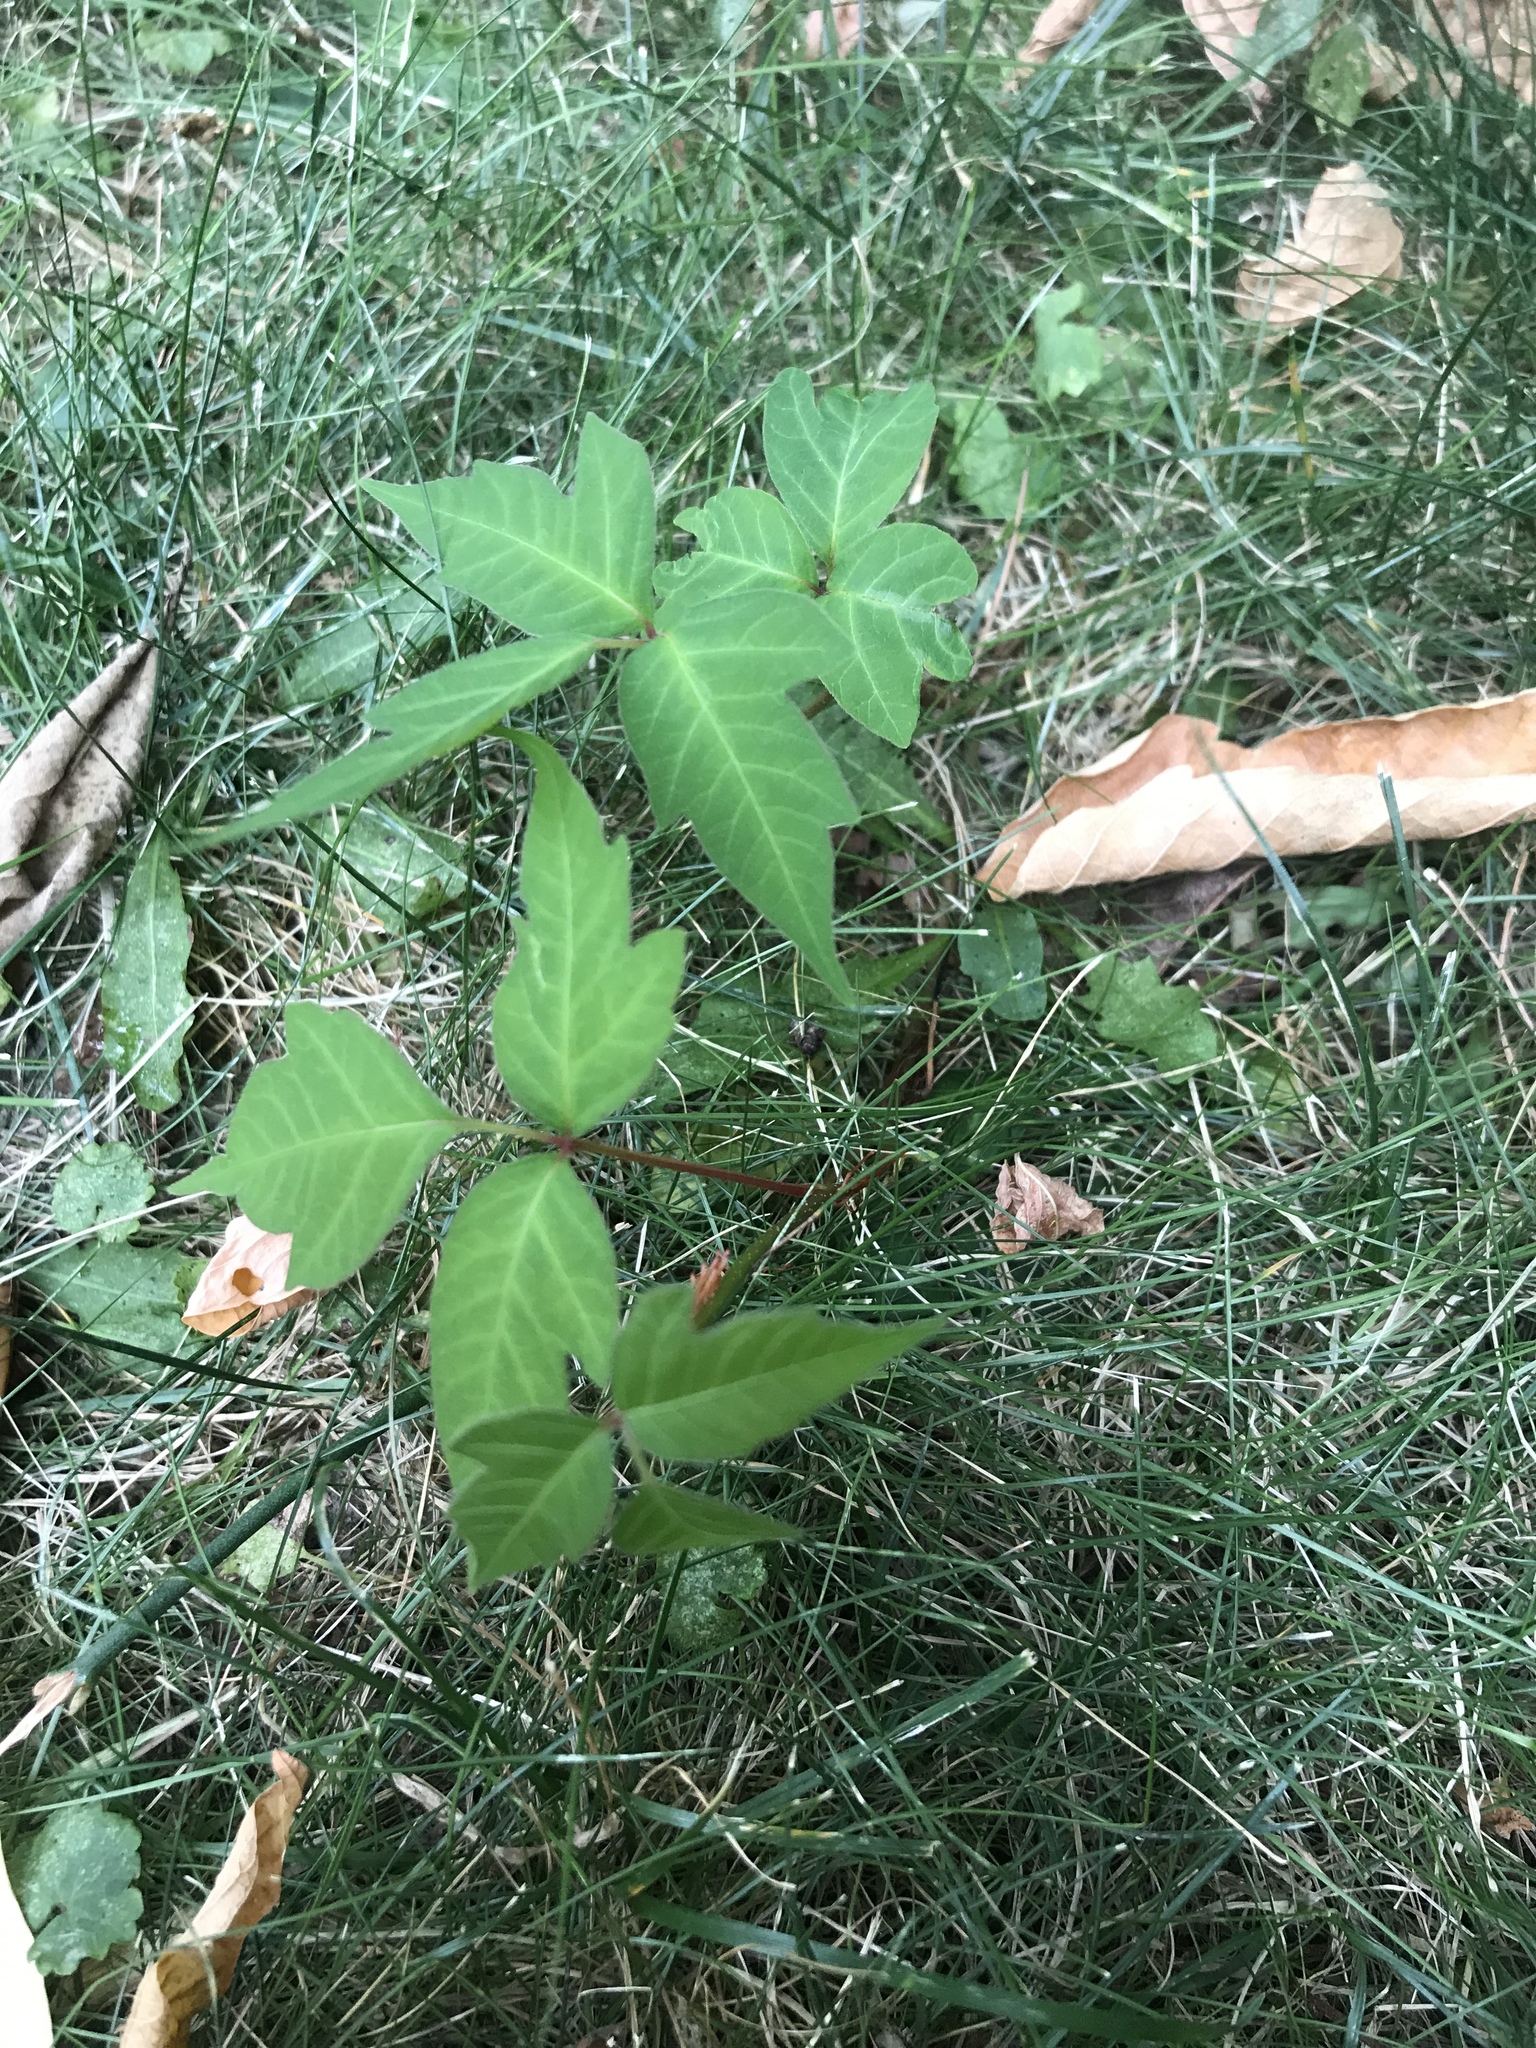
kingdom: Plantae
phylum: Tracheophyta
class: Magnoliopsida
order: Sapindales
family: Anacardiaceae
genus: Toxicodendron
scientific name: Toxicodendron radicans
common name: Poison ivy
